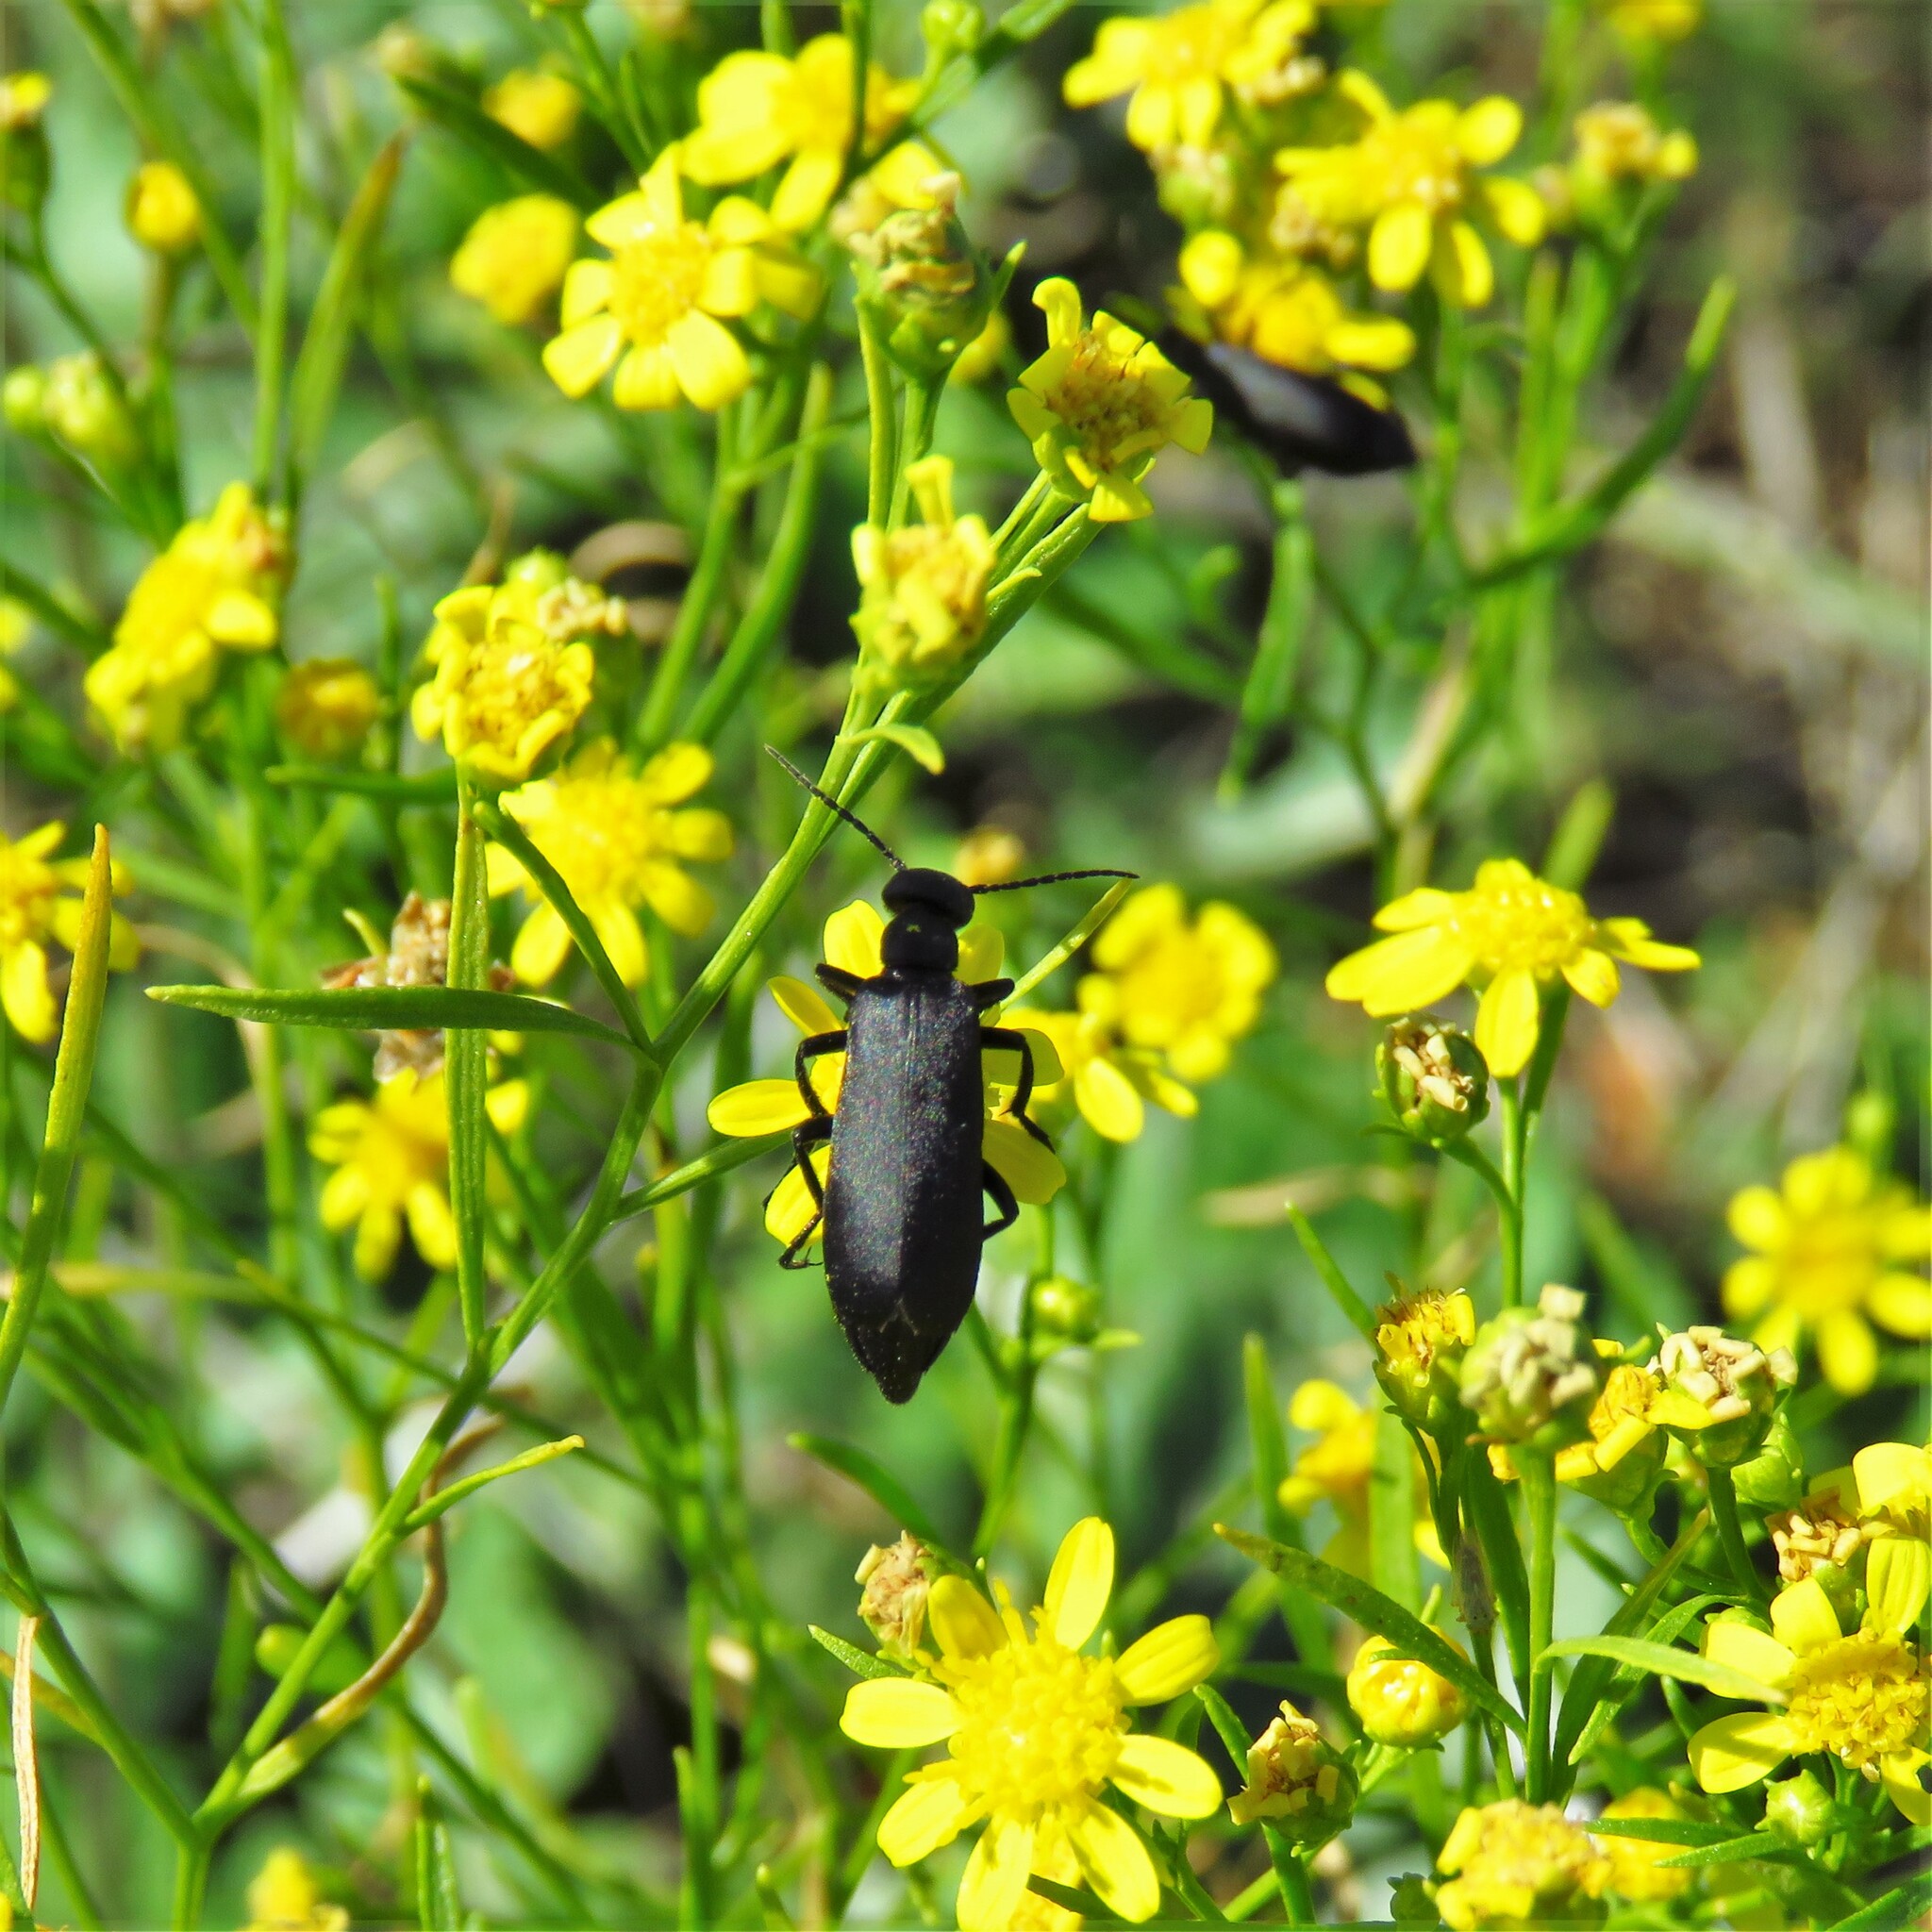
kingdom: Animalia
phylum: Arthropoda
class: Insecta
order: Coleoptera
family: Meloidae
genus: Epicauta
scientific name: Epicauta pensylvanica
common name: Black blister beetle
